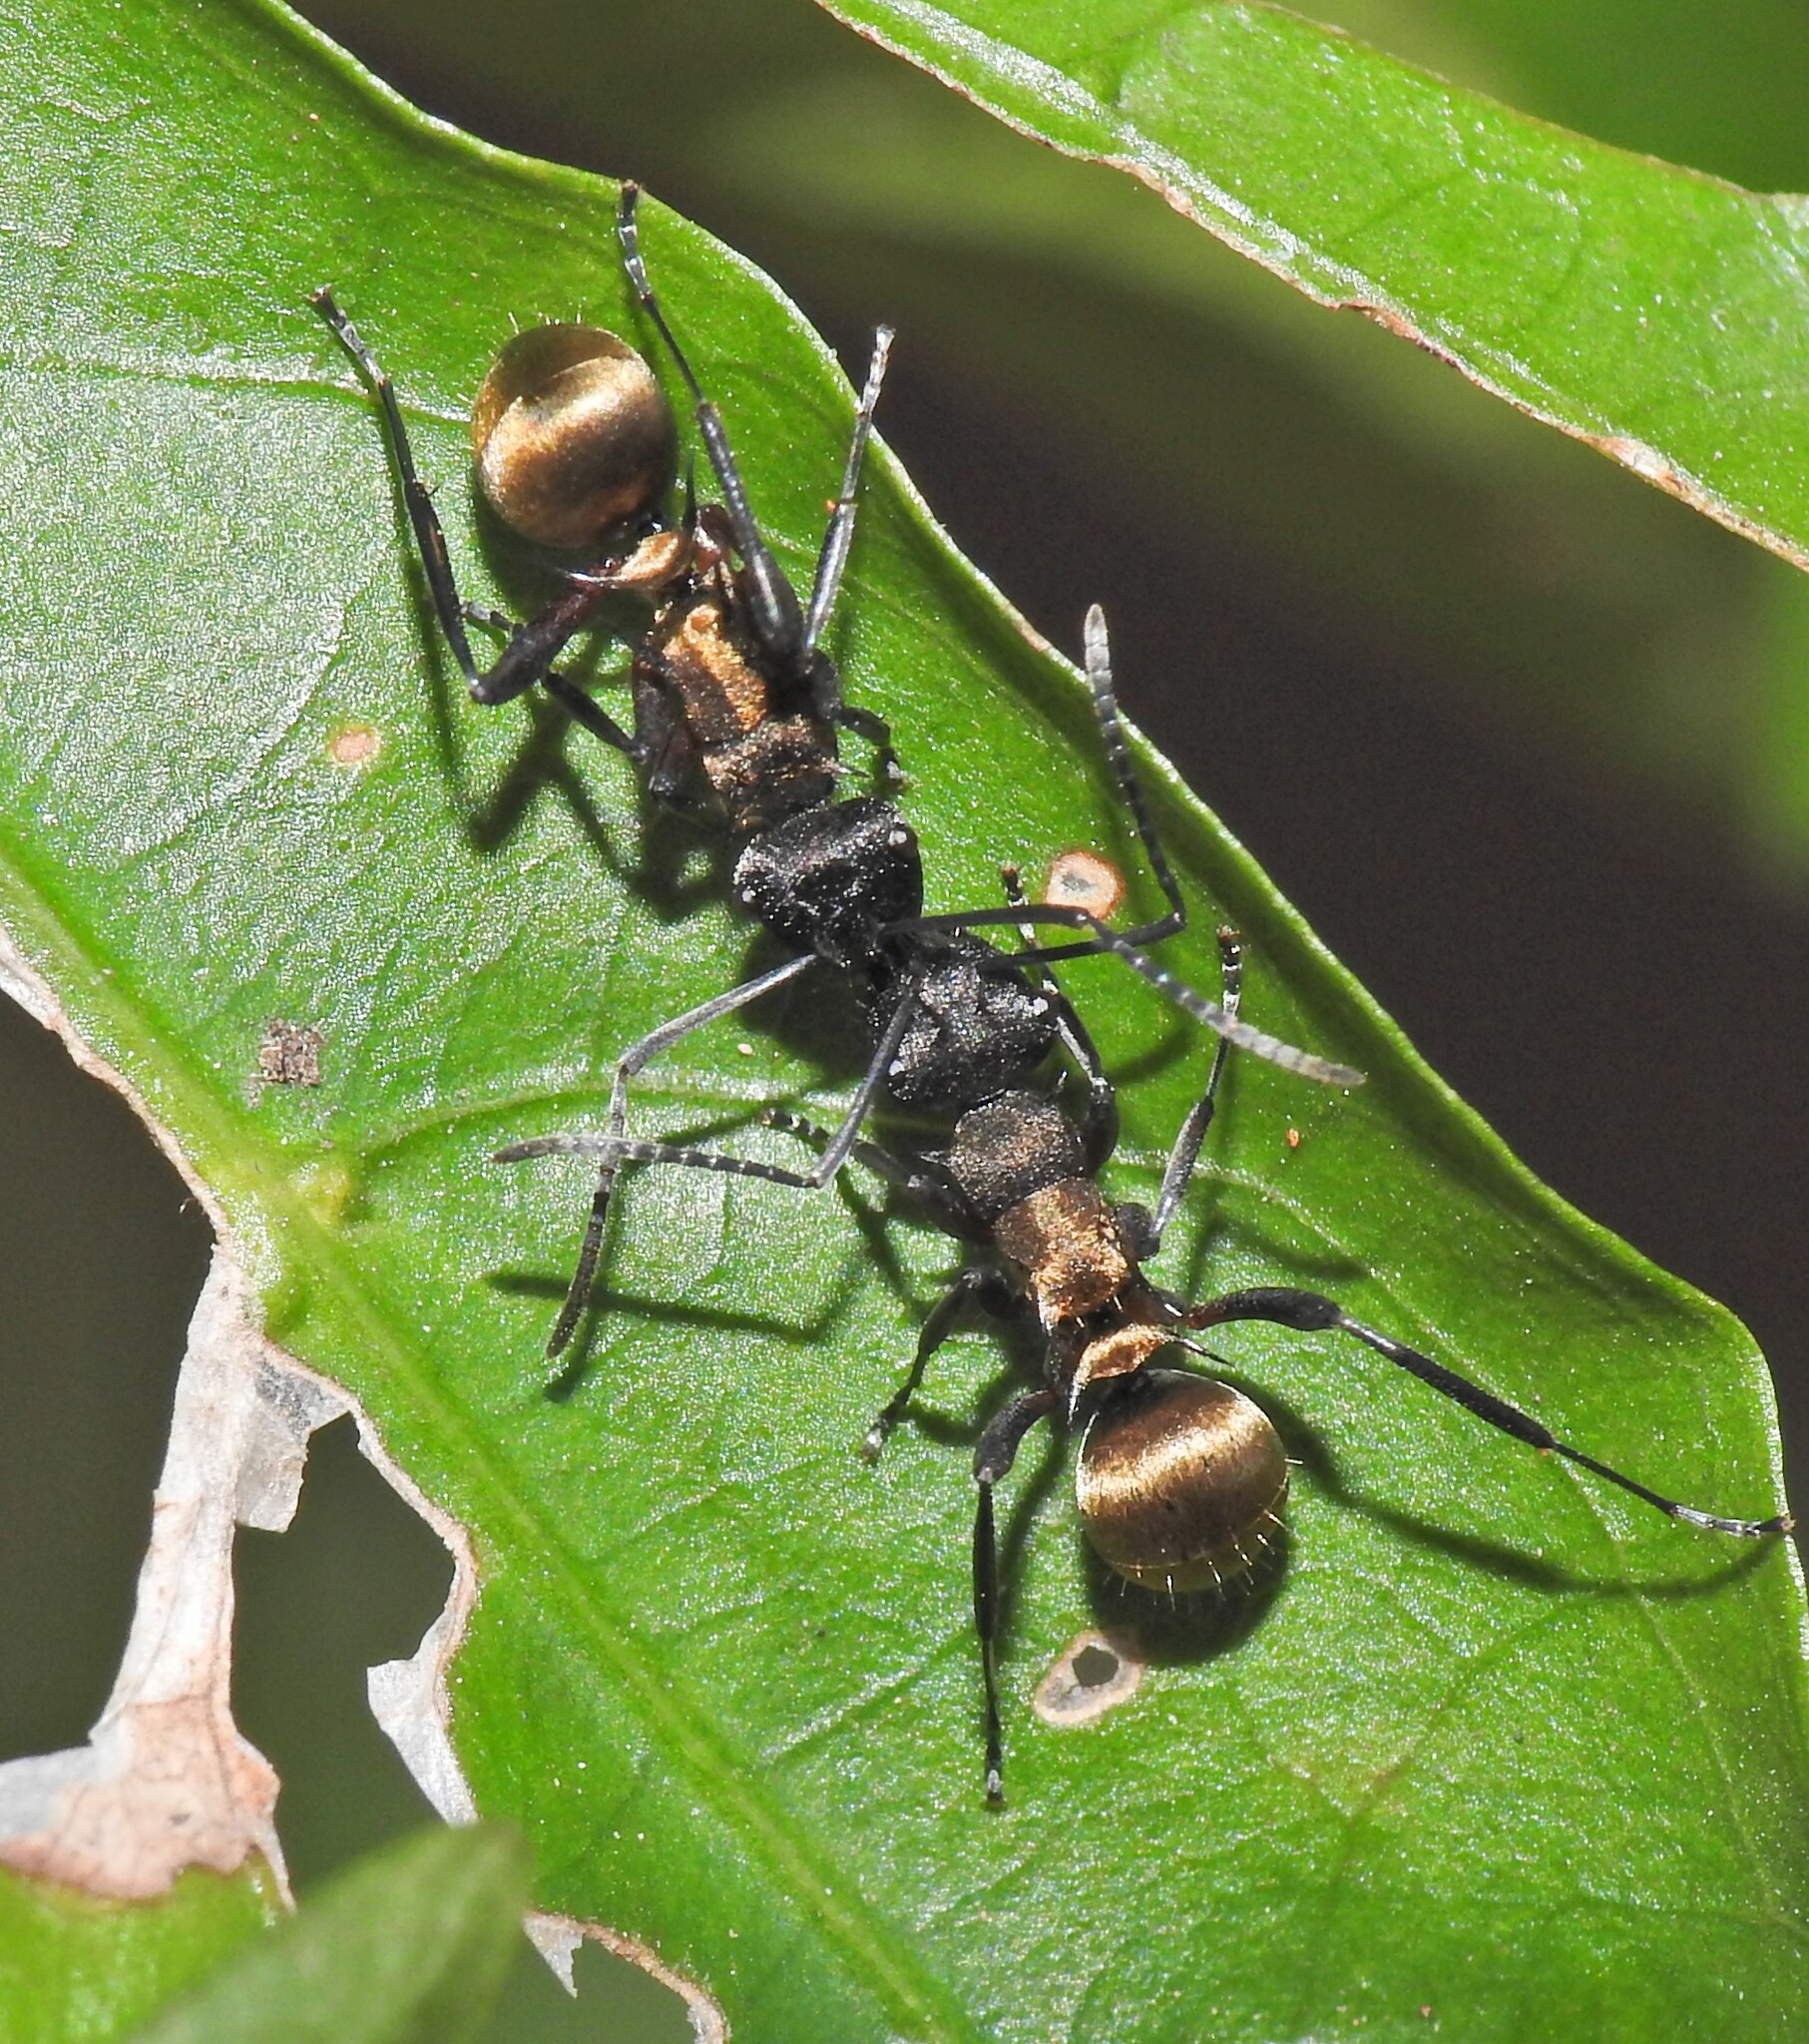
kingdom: Animalia
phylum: Arthropoda
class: Insecta
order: Hymenoptera
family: Formicidae
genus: Polyrhachis
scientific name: Polyrhachis rufifemur
